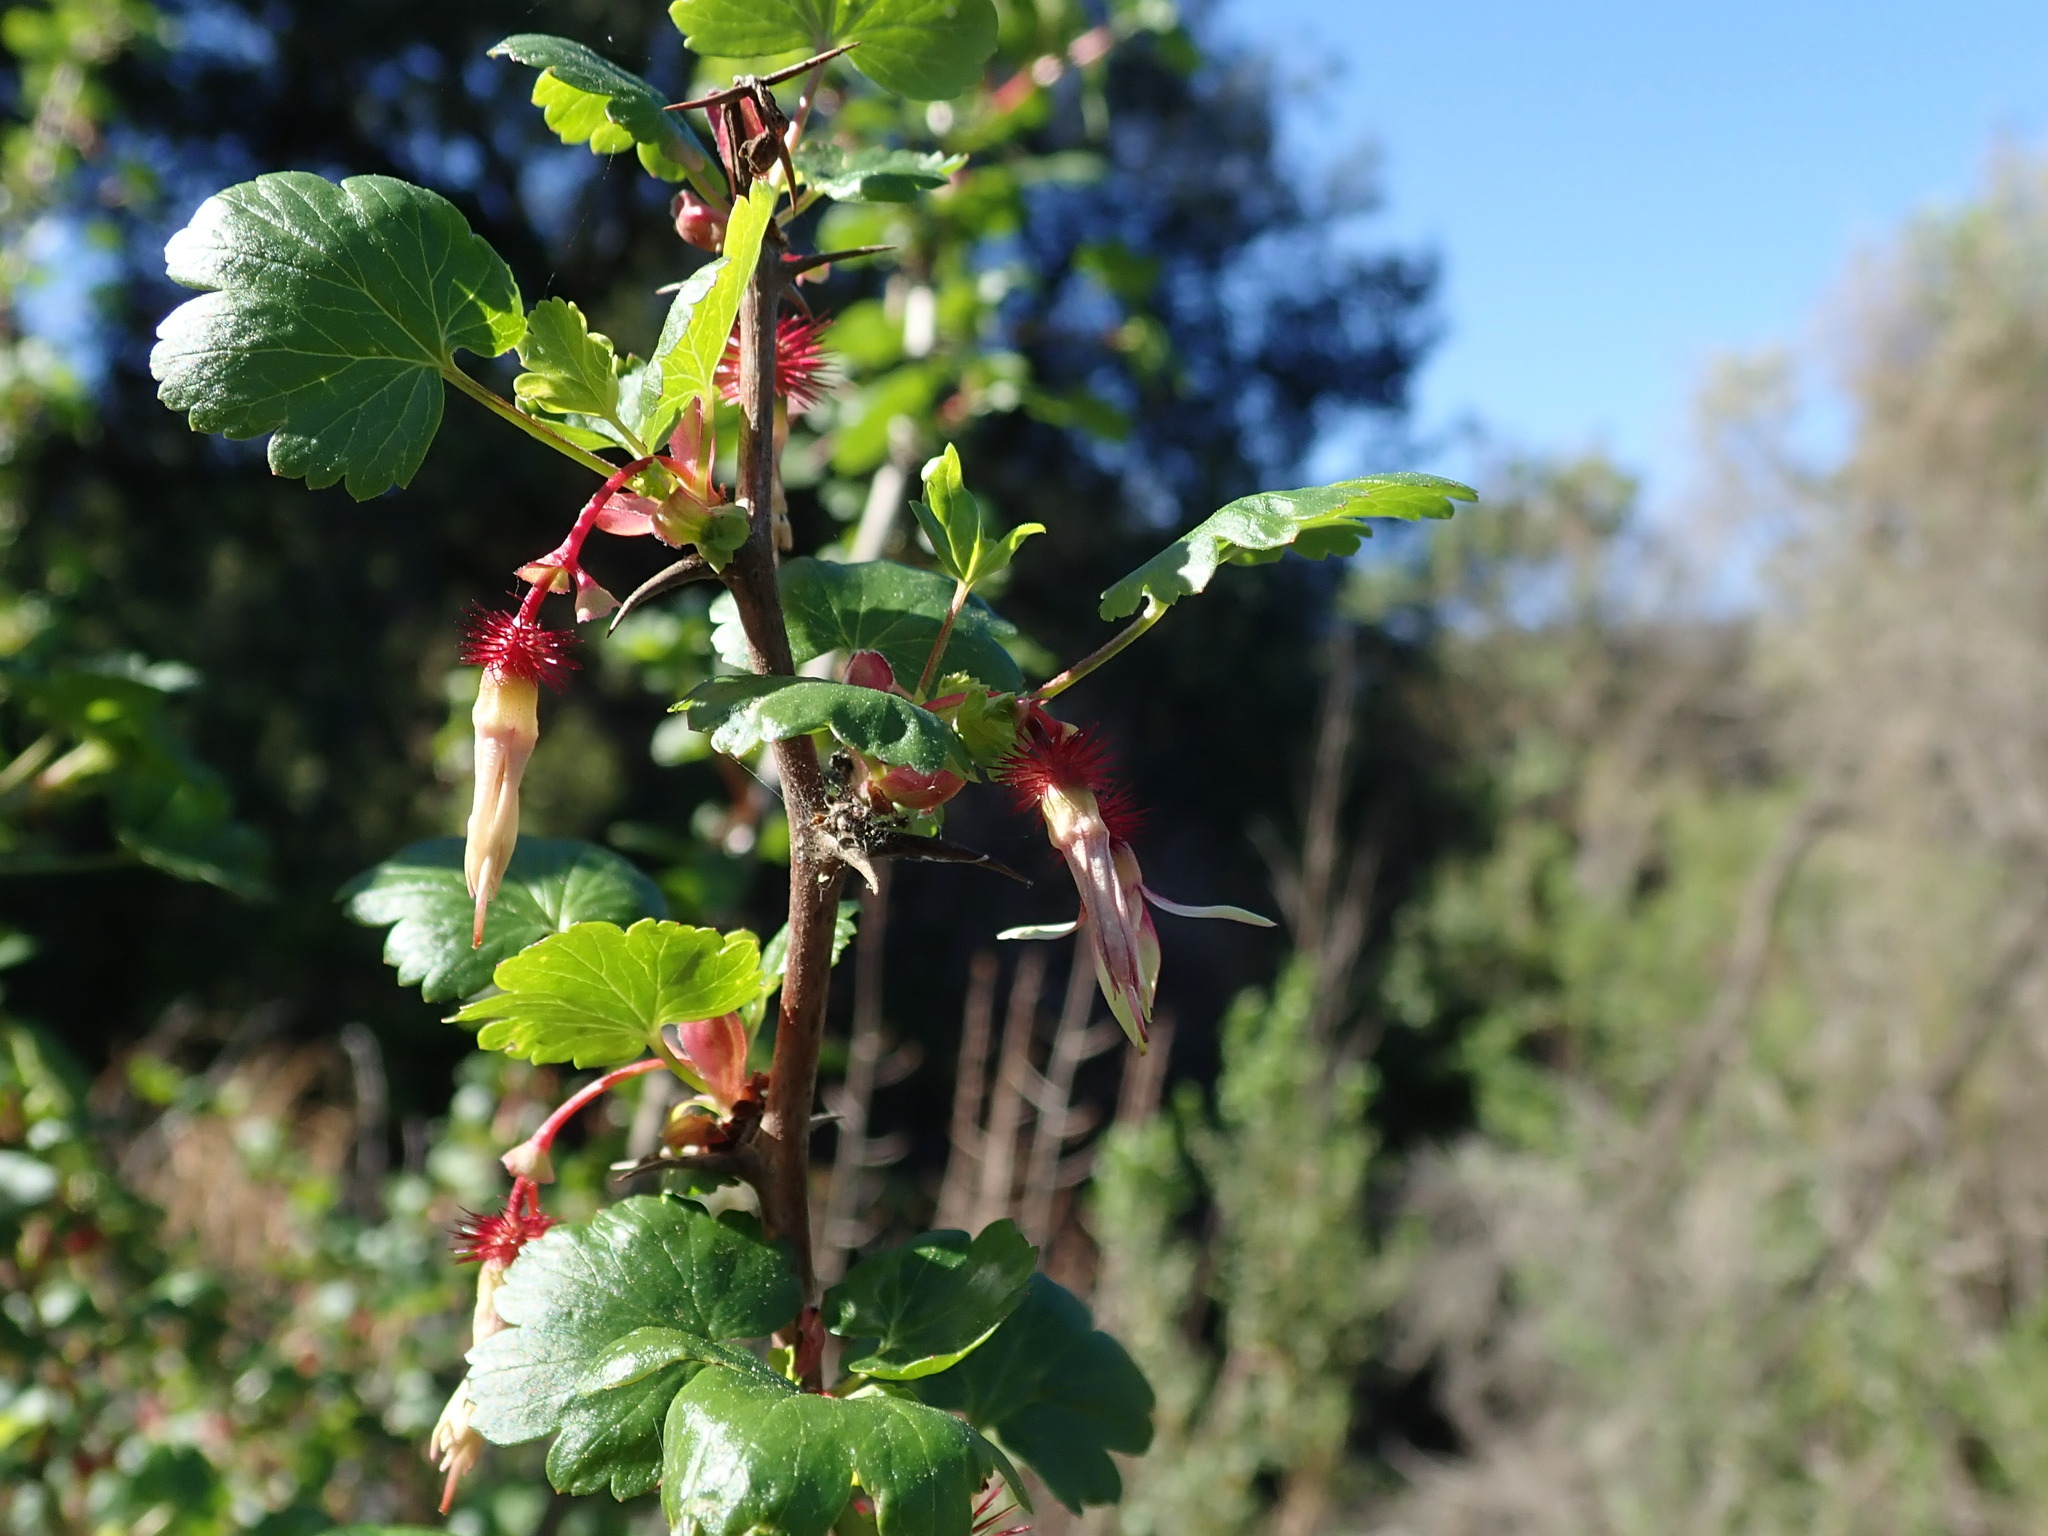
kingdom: Plantae
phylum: Tracheophyta
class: Magnoliopsida
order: Saxifragales
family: Grossulariaceae
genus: Ribes
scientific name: Ribes californicum
